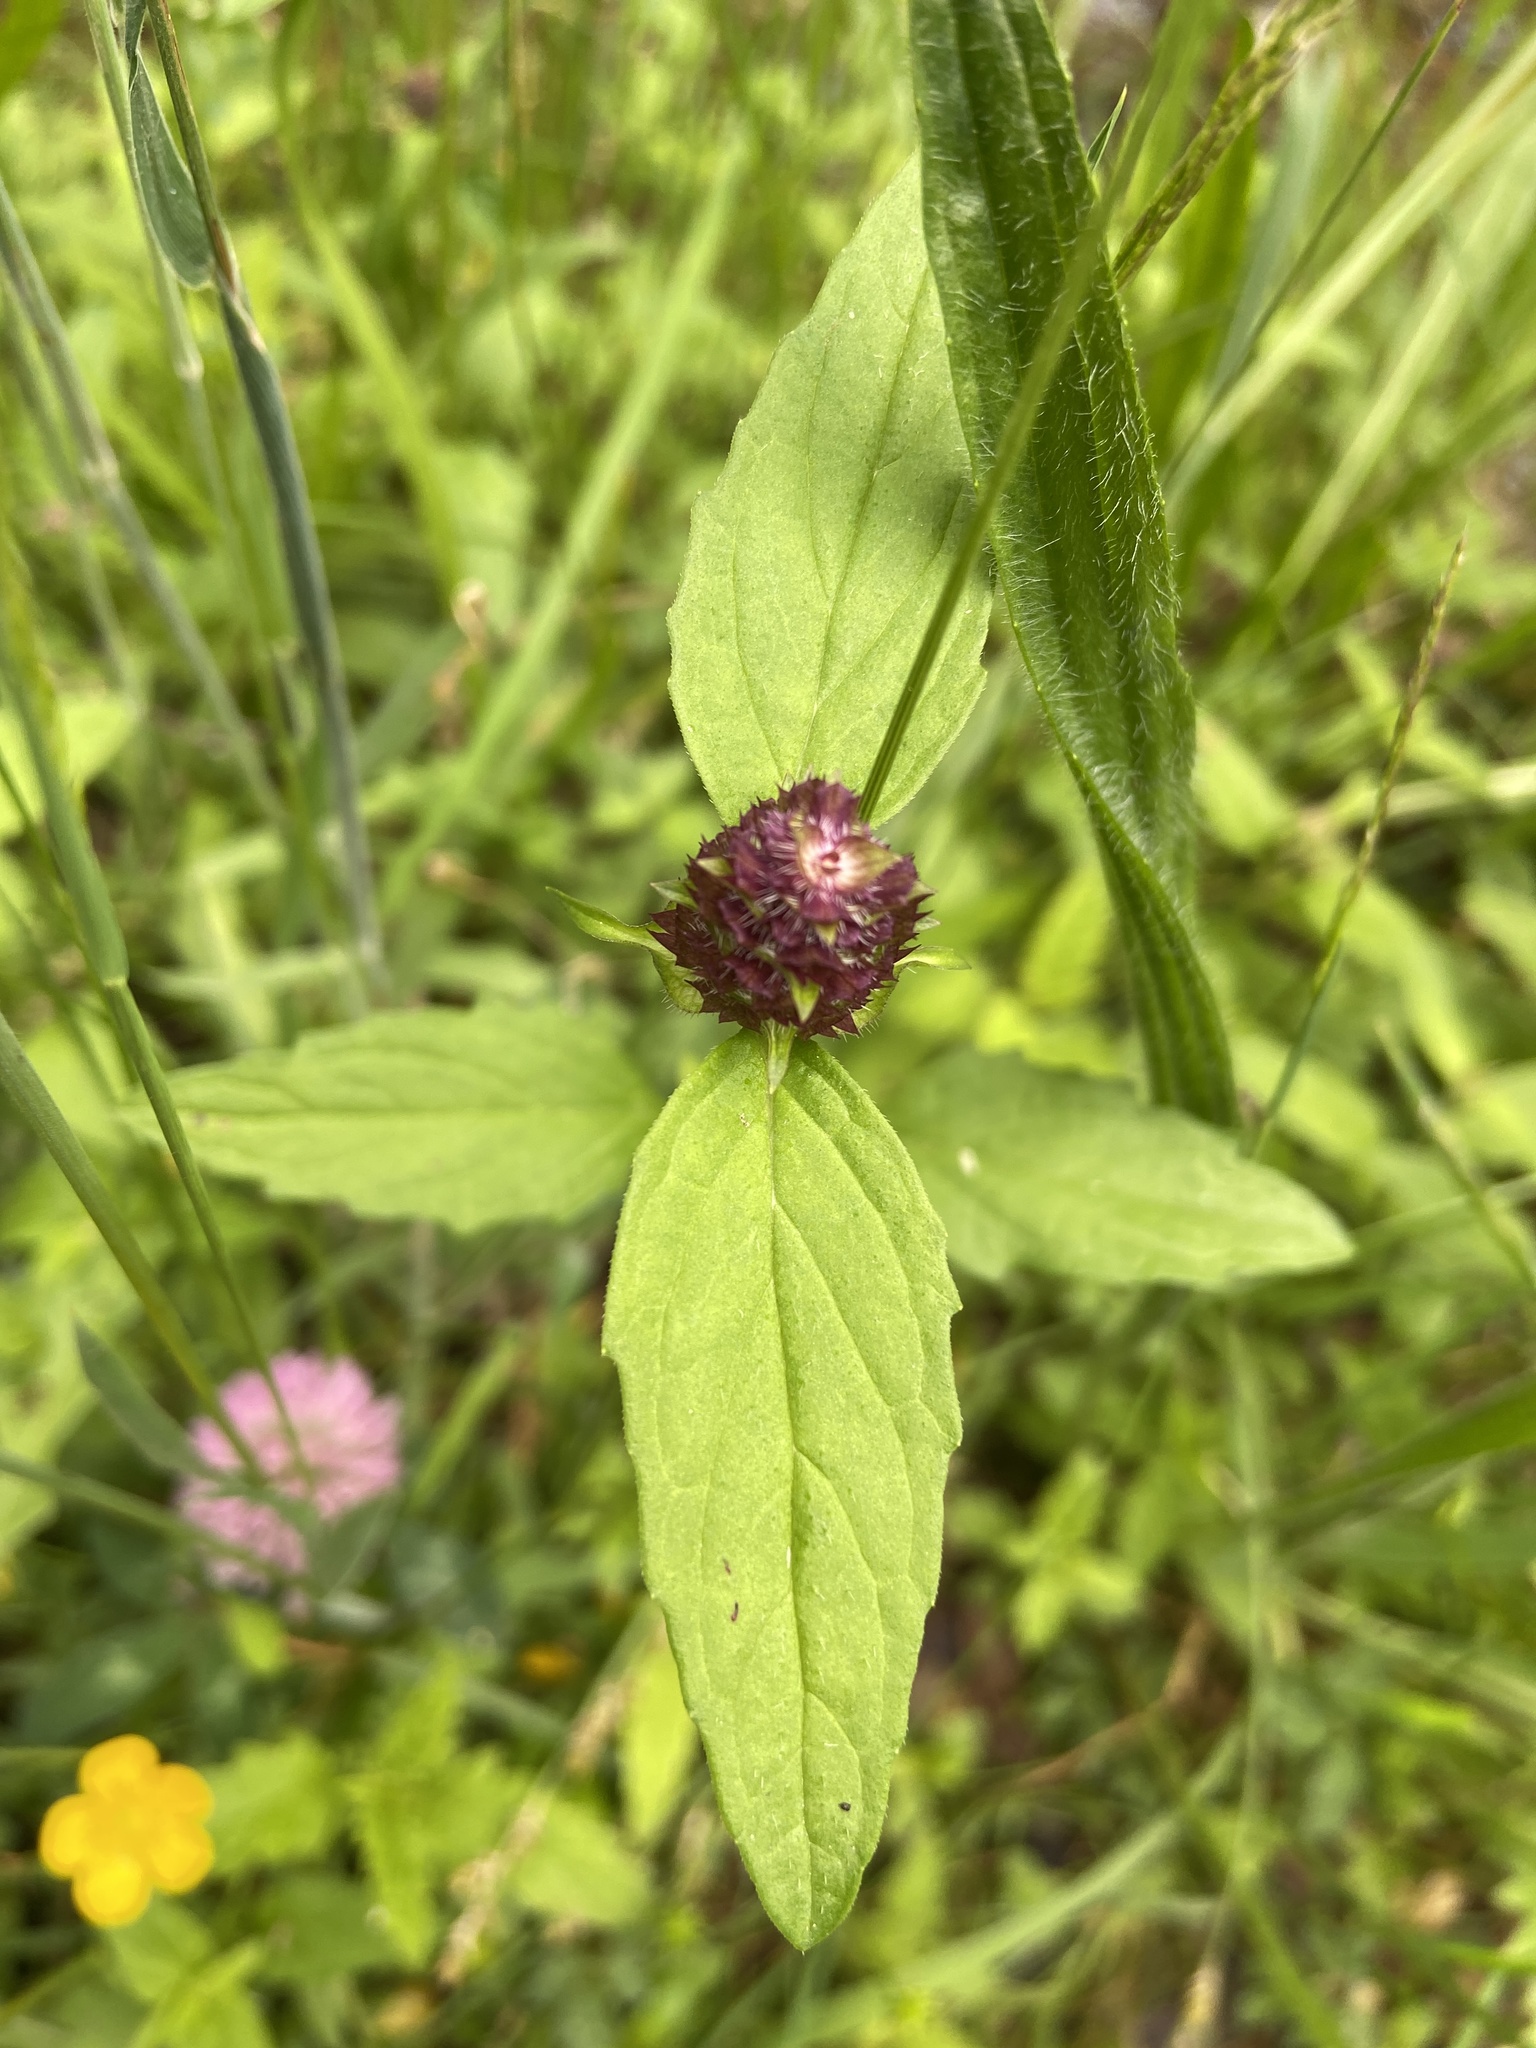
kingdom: Plantae
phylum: Tracheophyta
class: Magnoliopsida
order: Lamiales
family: Lamiaceae
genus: Prunella
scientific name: Prunella vulgaris
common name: Heal-all
